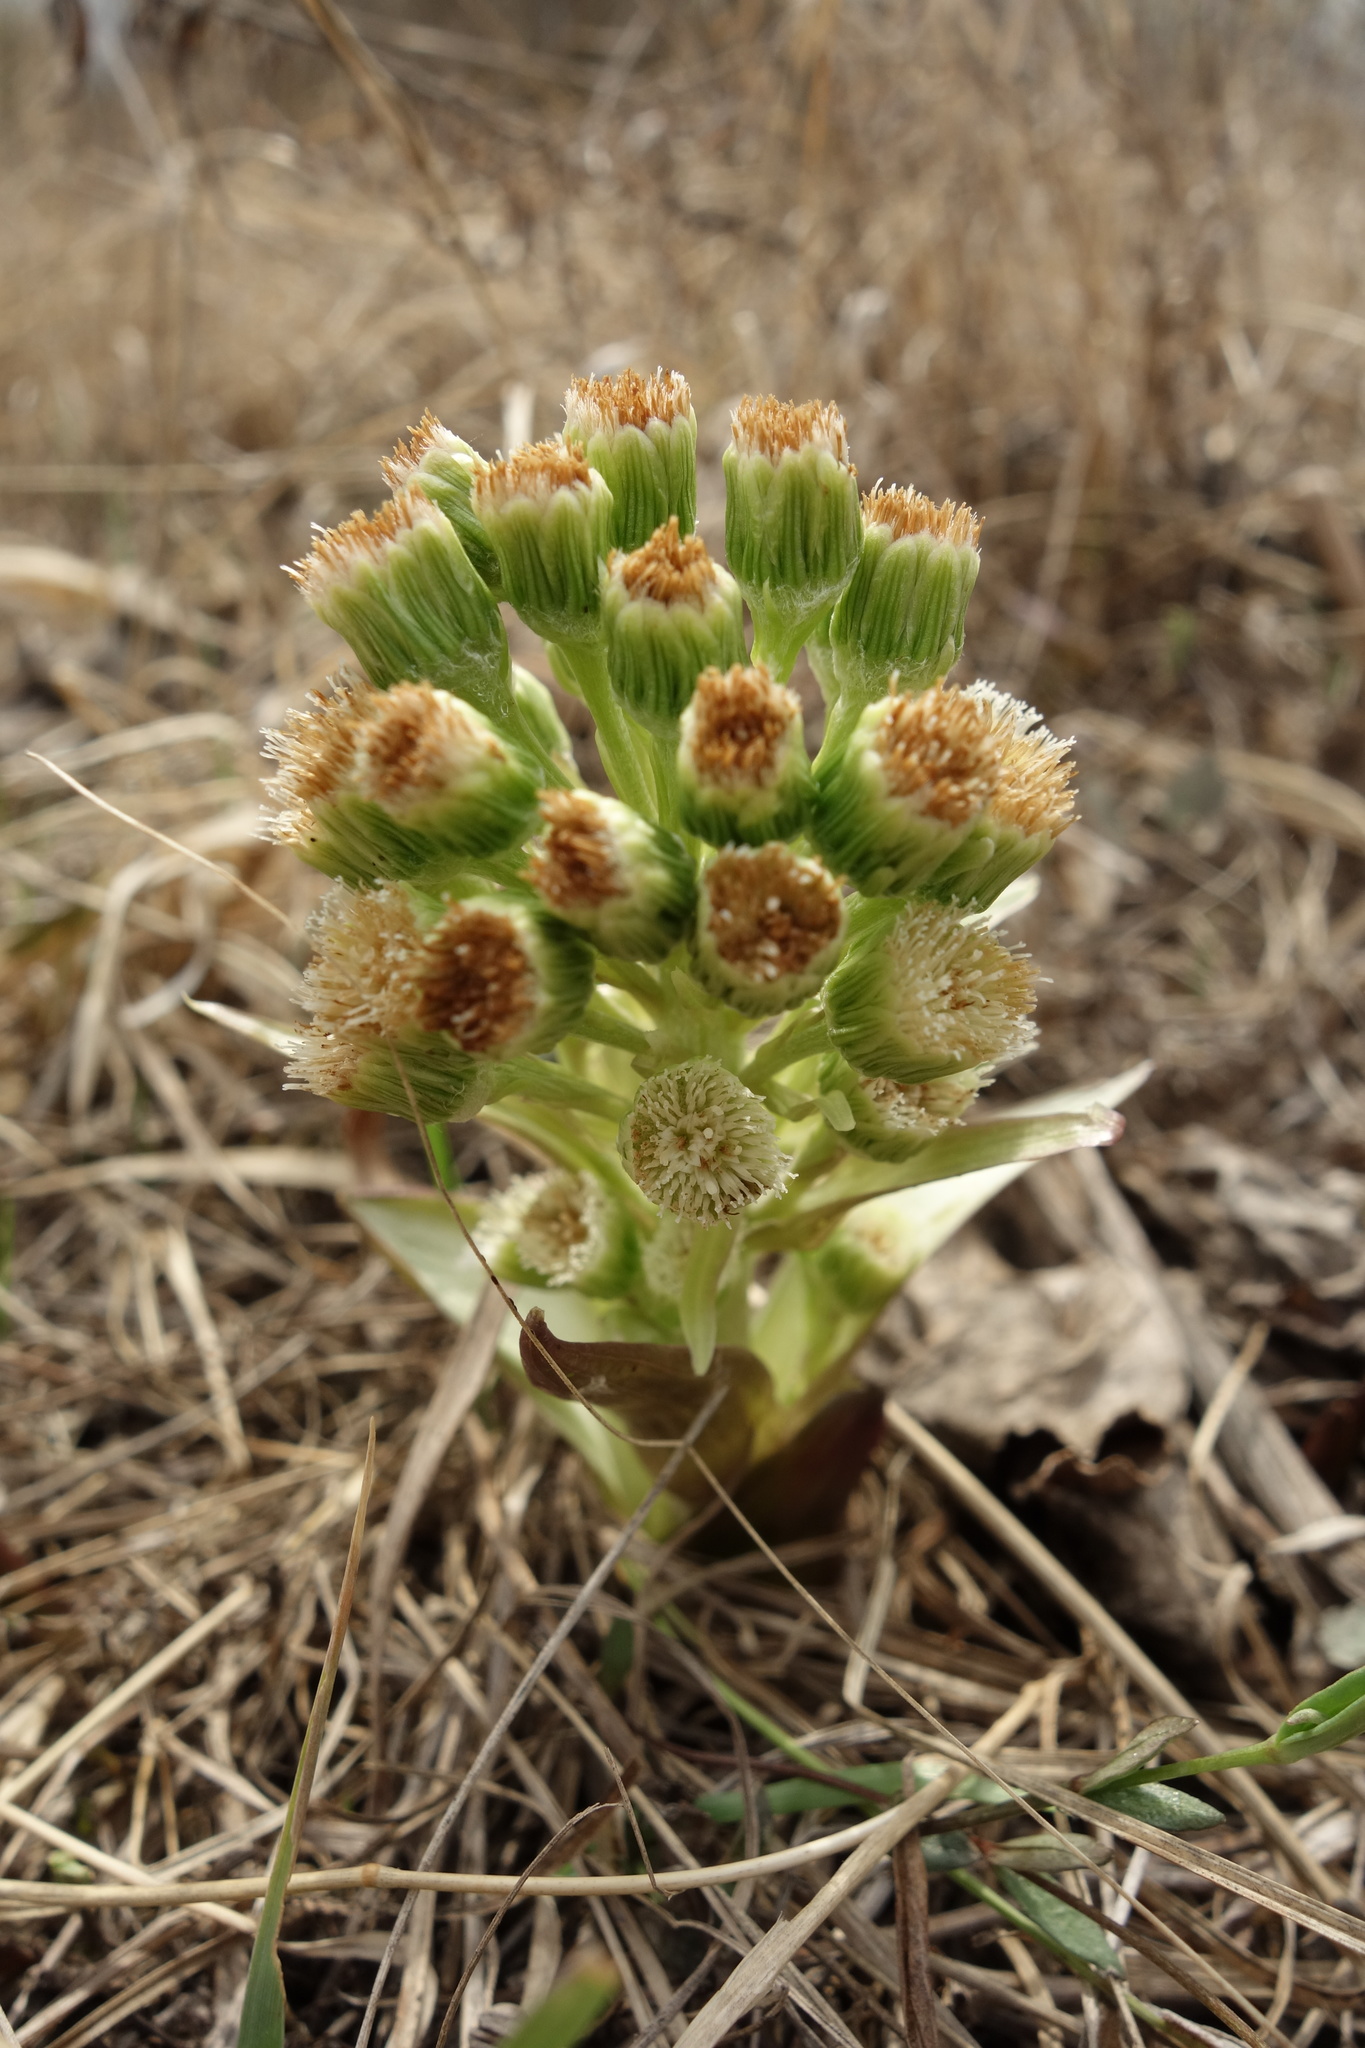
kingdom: Plantae
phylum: Tracheophyta
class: Magnoliopsida
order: Asterales
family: Asteraceae
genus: Petasites
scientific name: Petasites spurius
